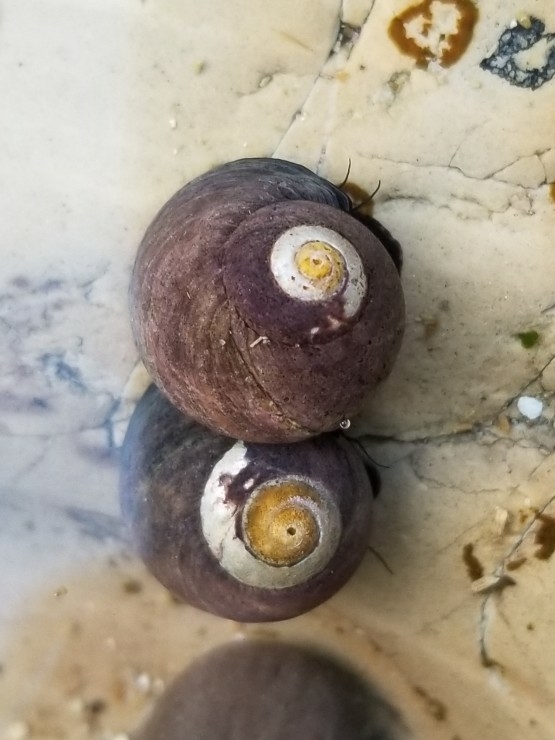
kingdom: Animalia
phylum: Mollusca
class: Gastropoda
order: Trochida
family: Tegulidae
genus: Tegula
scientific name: Tegula funebralis
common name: Black tegula
